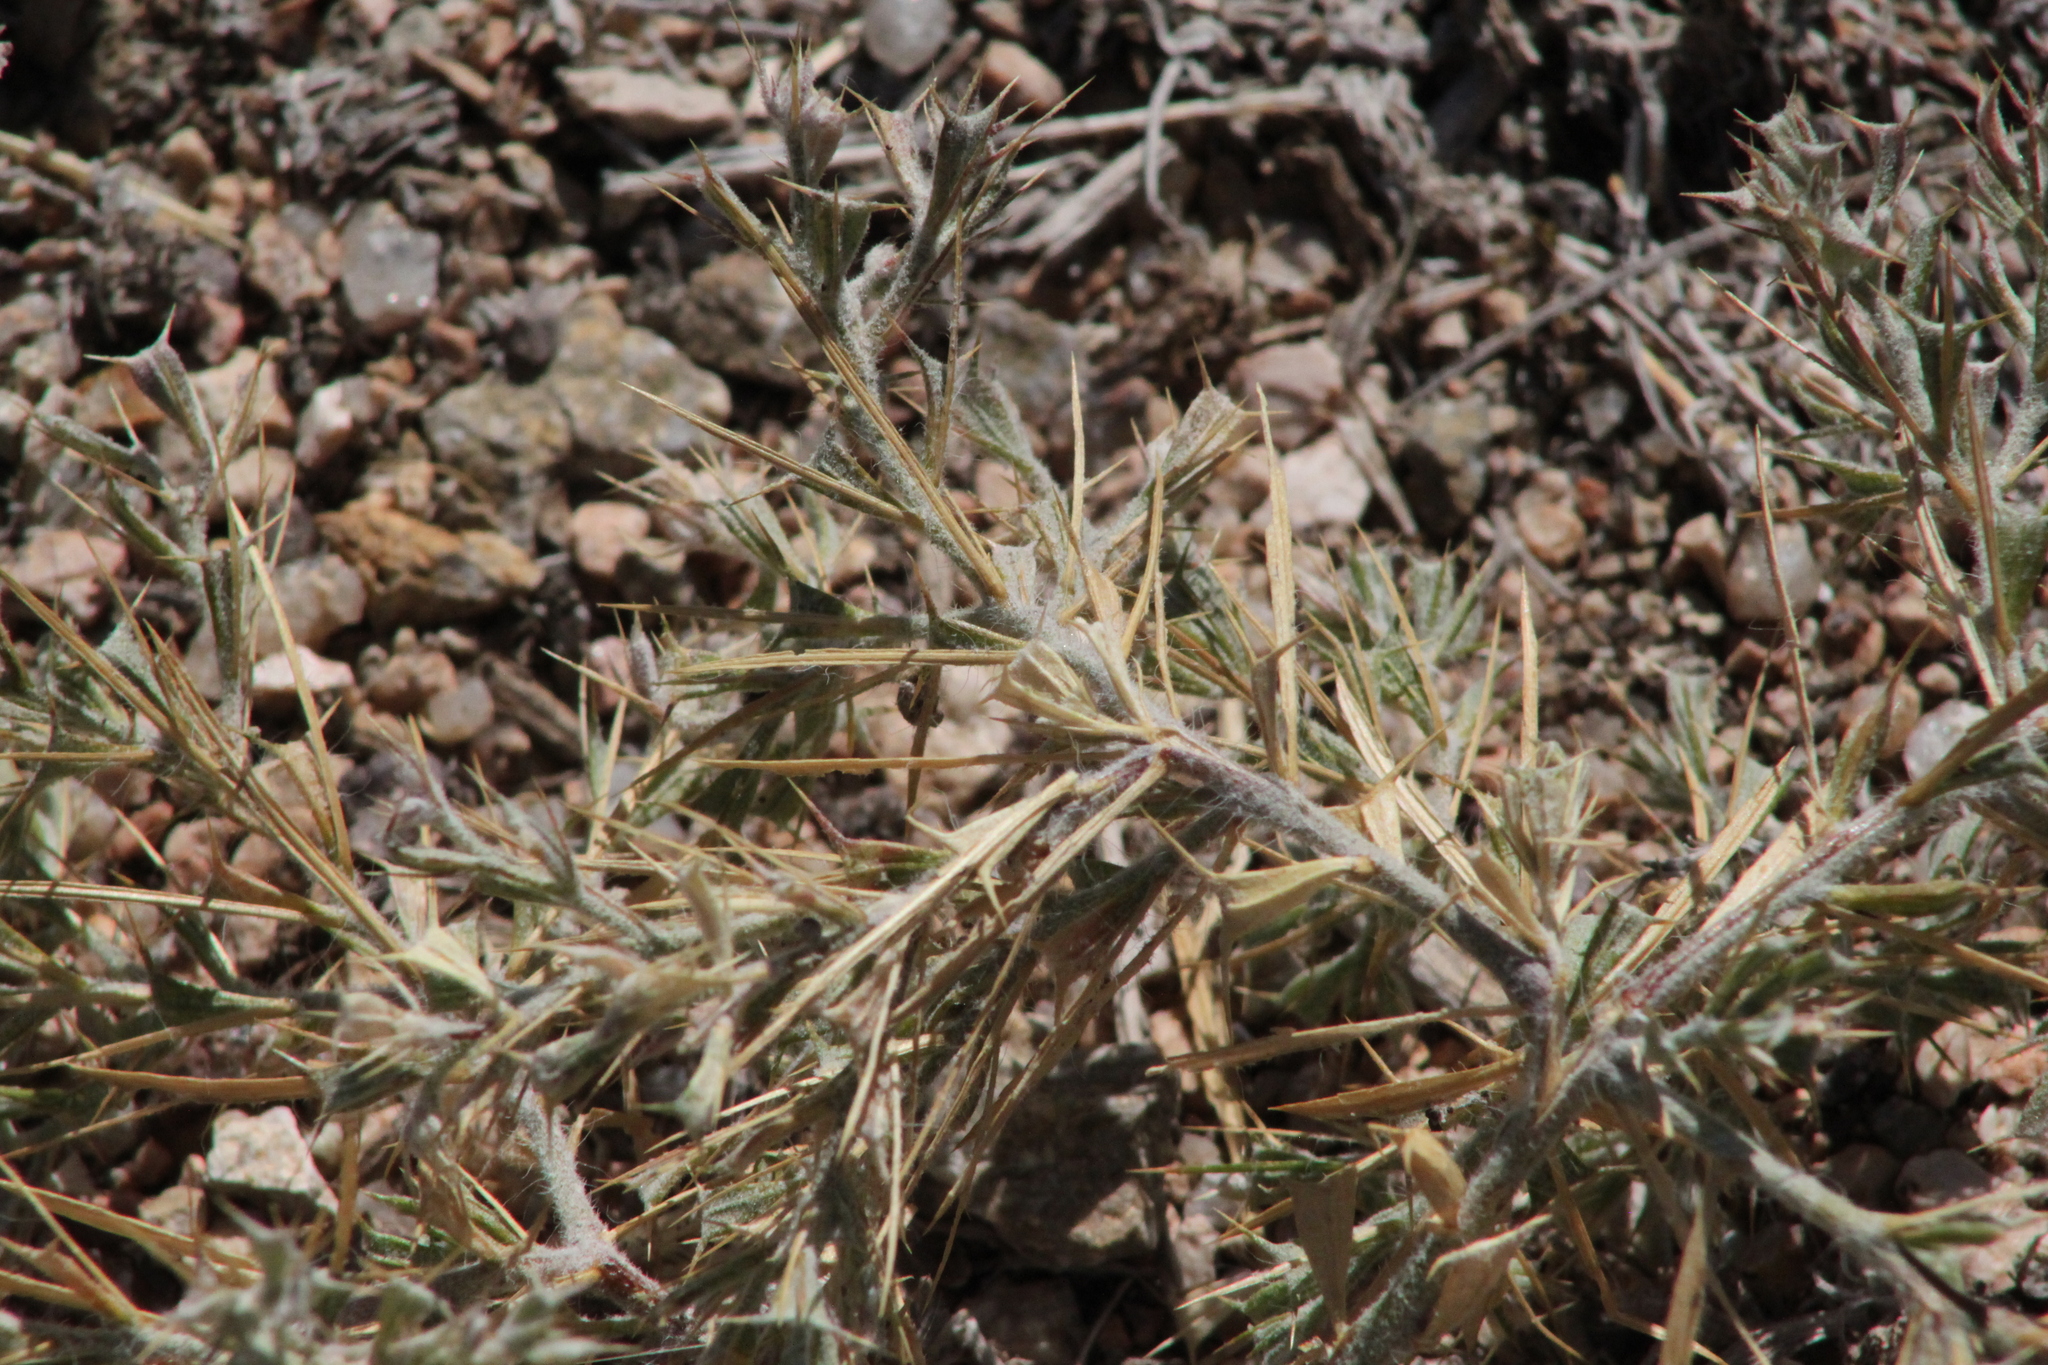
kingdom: Plantae
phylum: Tracheophyta
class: Magnoliopsida
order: Caryophyllales
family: Amaranthaceae
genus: Ceratocarpus
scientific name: Ceratocarpus arenarius
